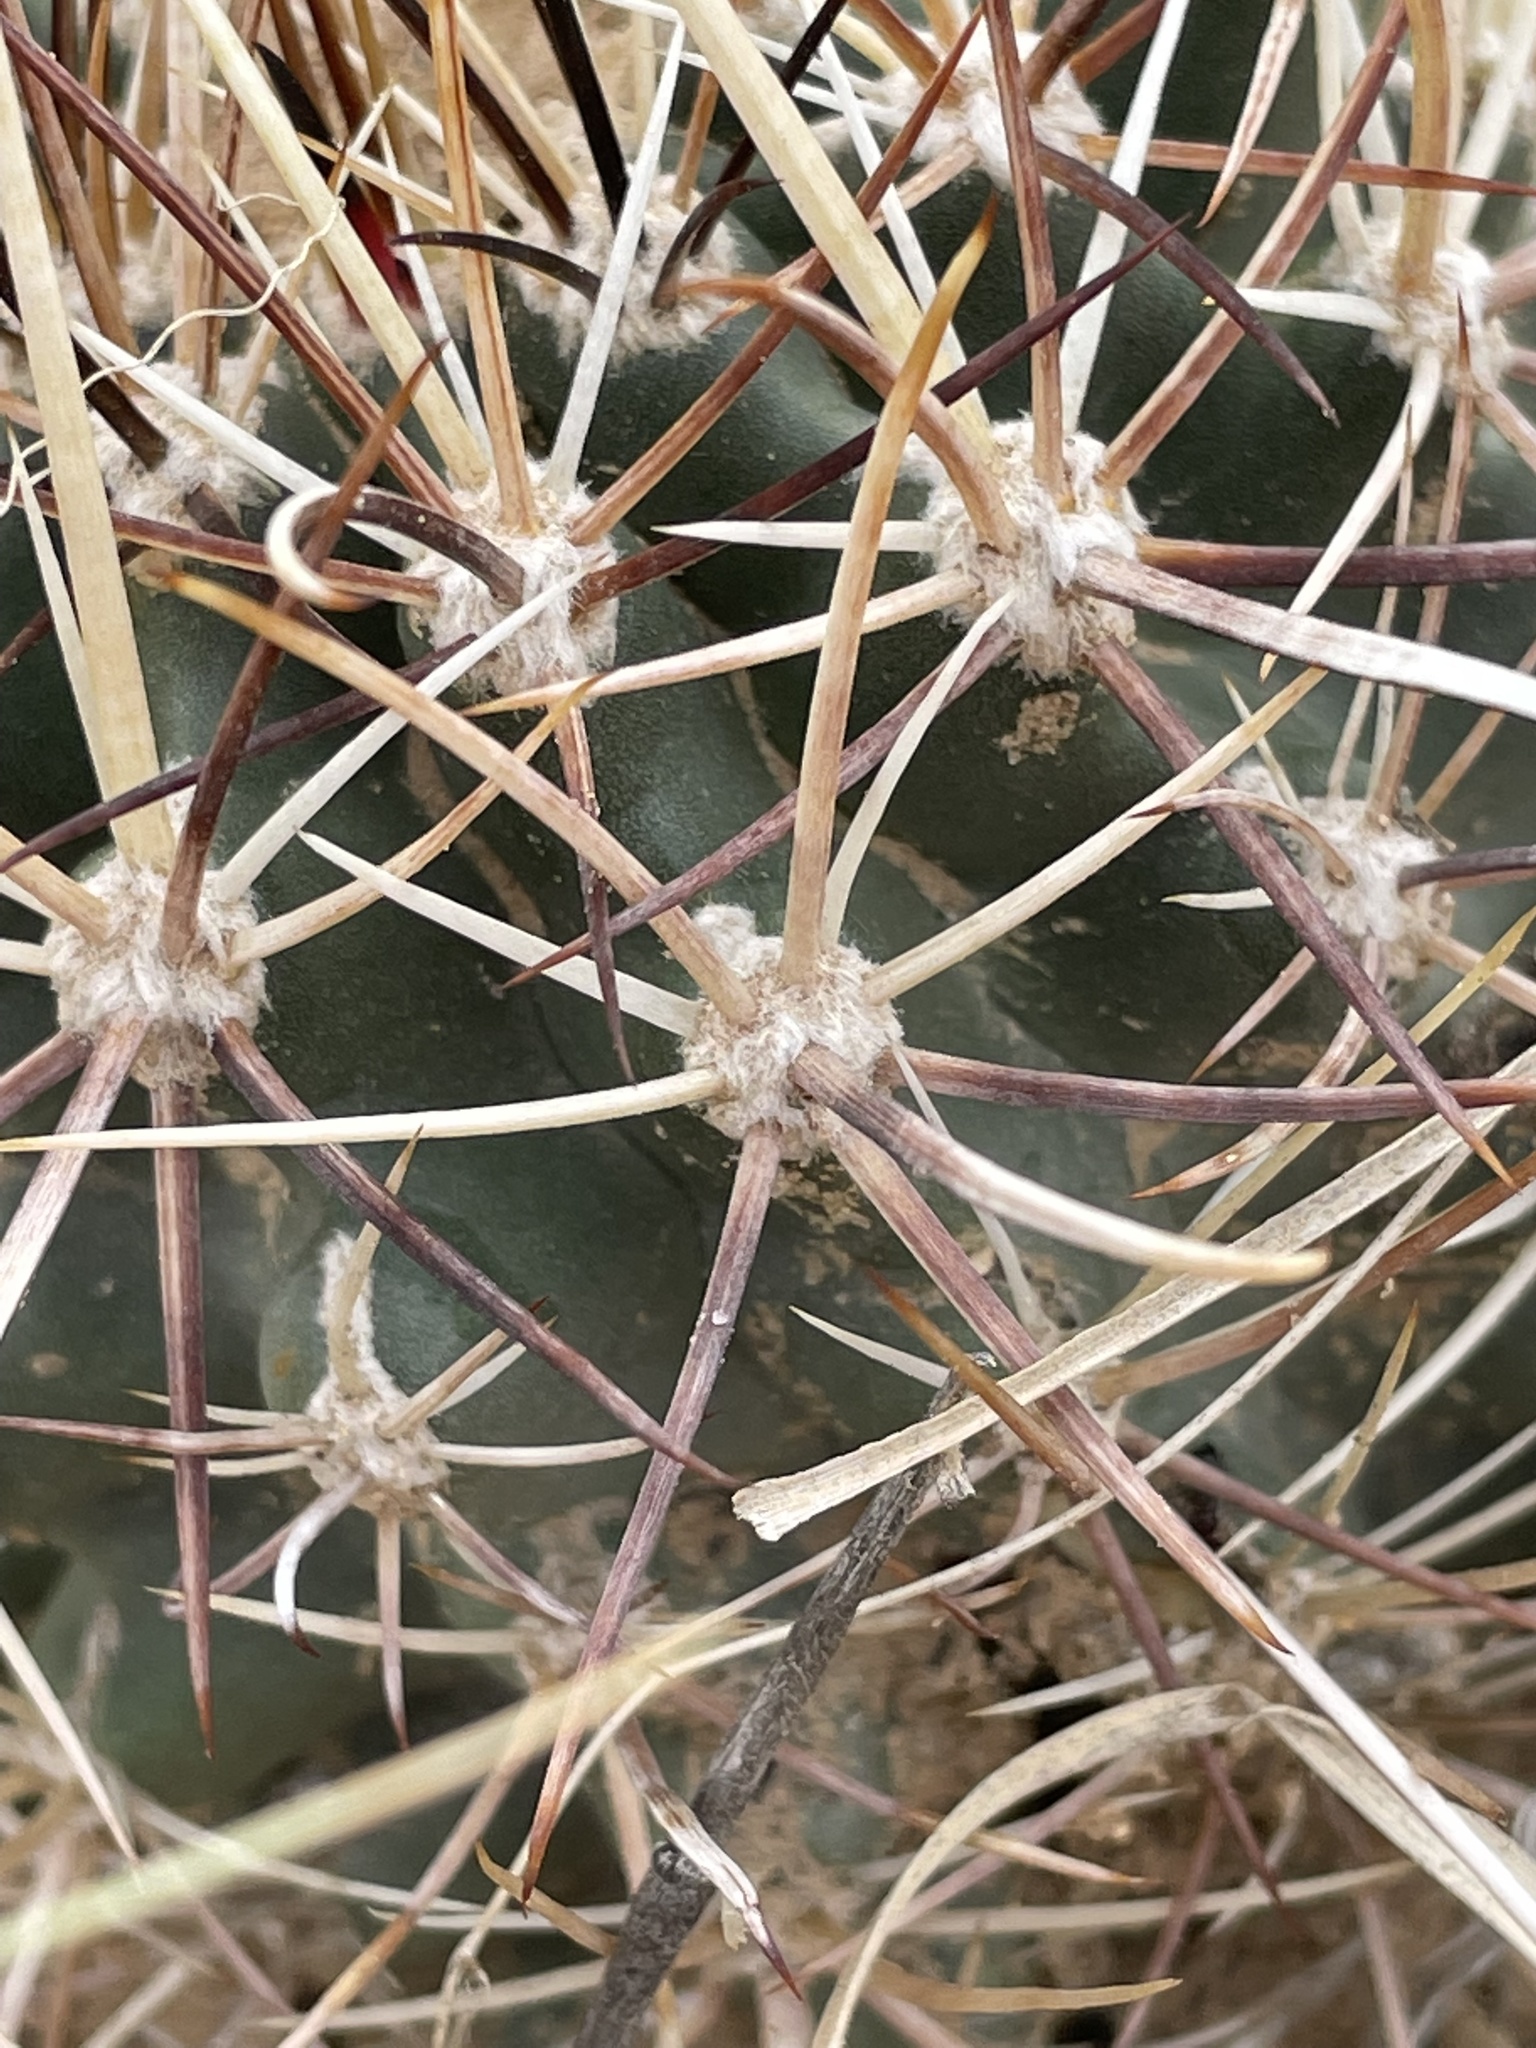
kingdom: Plantae
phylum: Tracheophyta
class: Magnoliopsida
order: Caryophyllales
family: Cactaceae
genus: Sclerocactus
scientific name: Sclerocactus cloverae
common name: Clover's eagle-claw cactus
